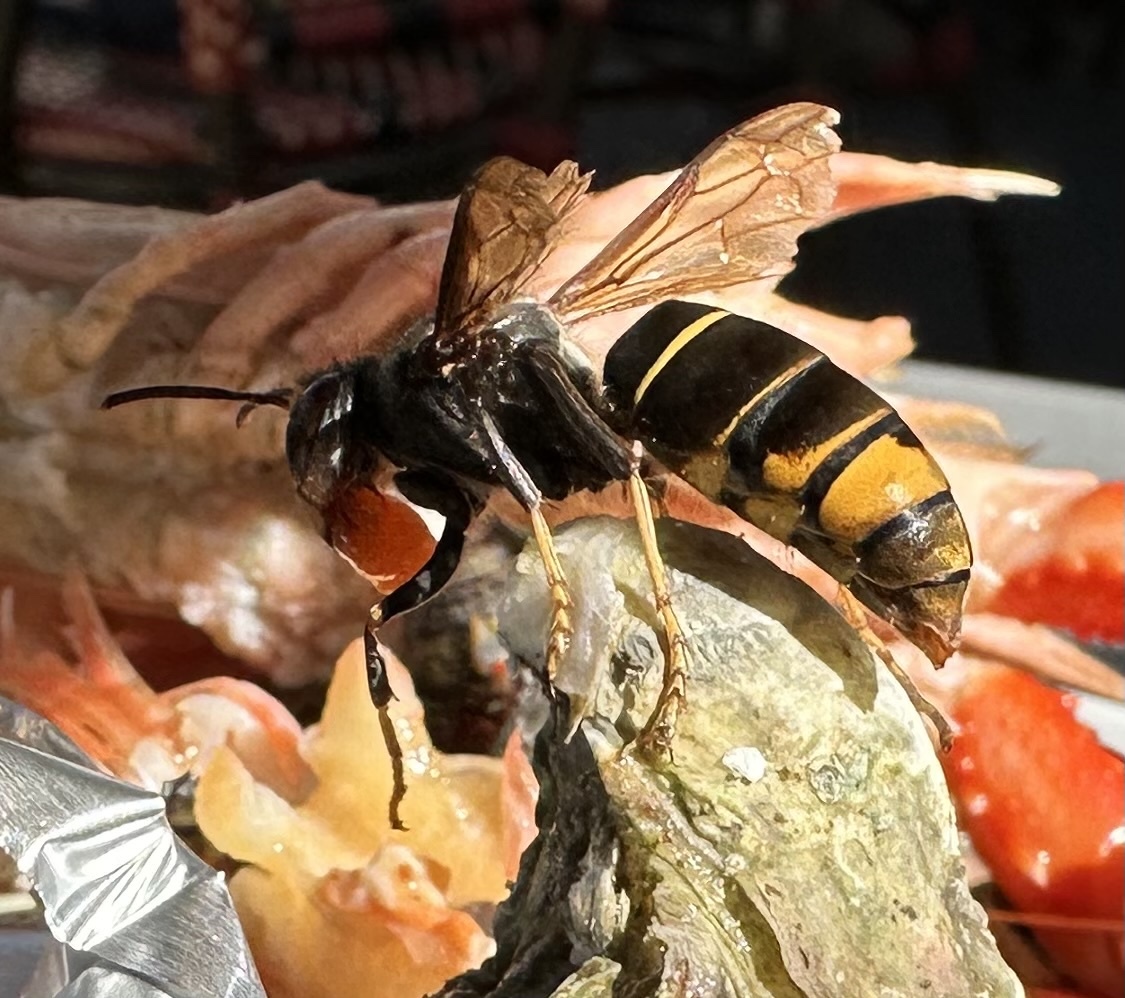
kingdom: Animalia
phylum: Arthropoda
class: Insecta
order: Hymenoptera
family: Vespidae
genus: Vespa
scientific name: Vespa velutina
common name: Asian hornet
